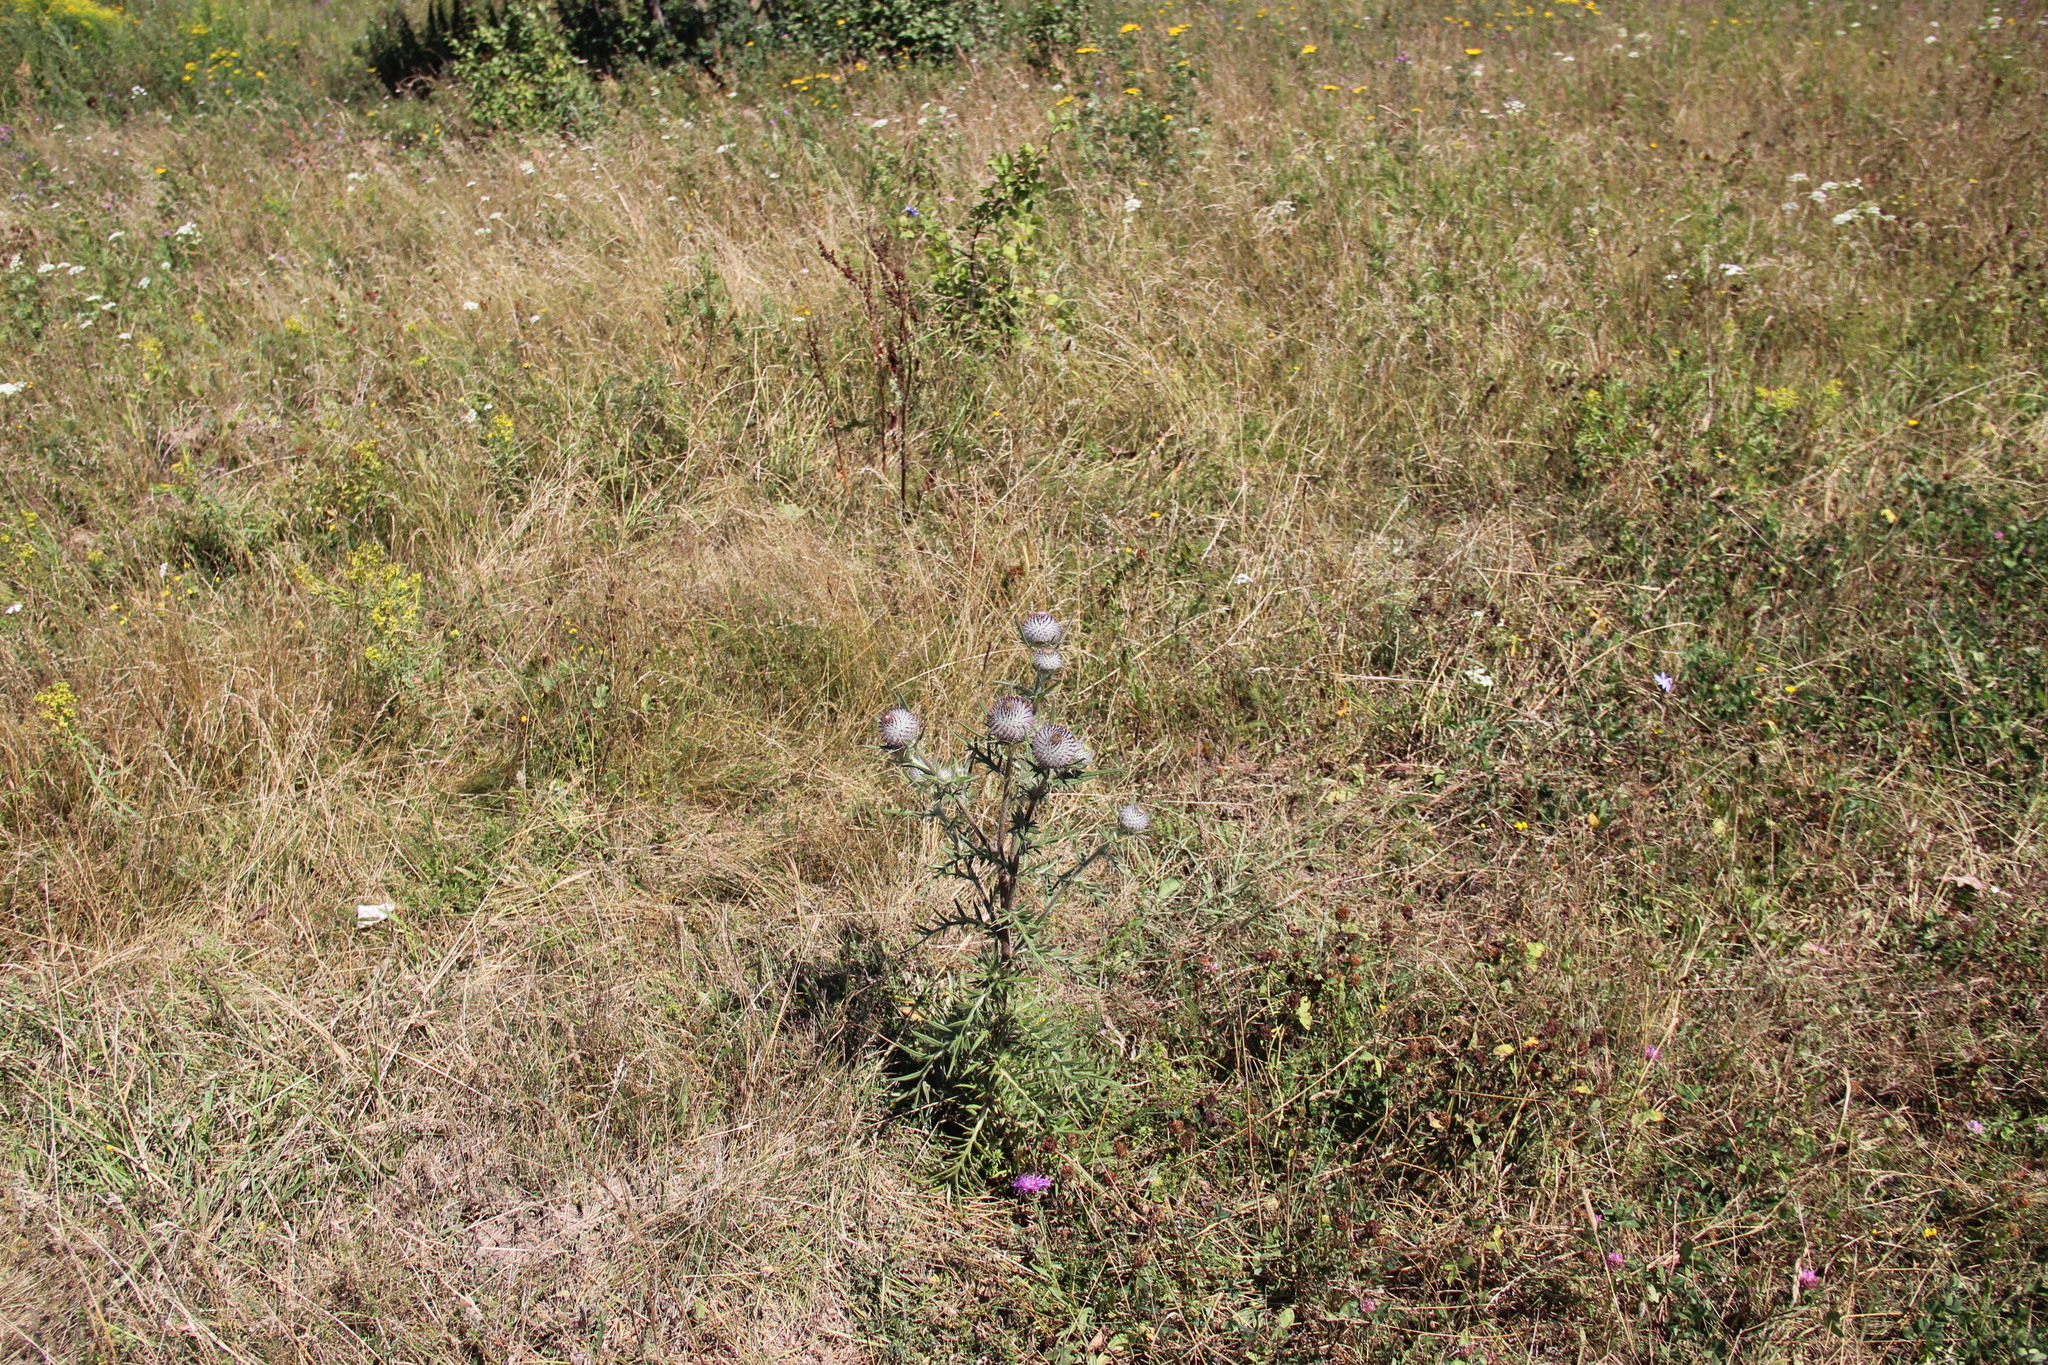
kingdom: Plantae
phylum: Tracheophyta
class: Magnoliopsida
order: Asterales
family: Asteraceae
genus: Lophiolepis
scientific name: Lophiolepis decussata
